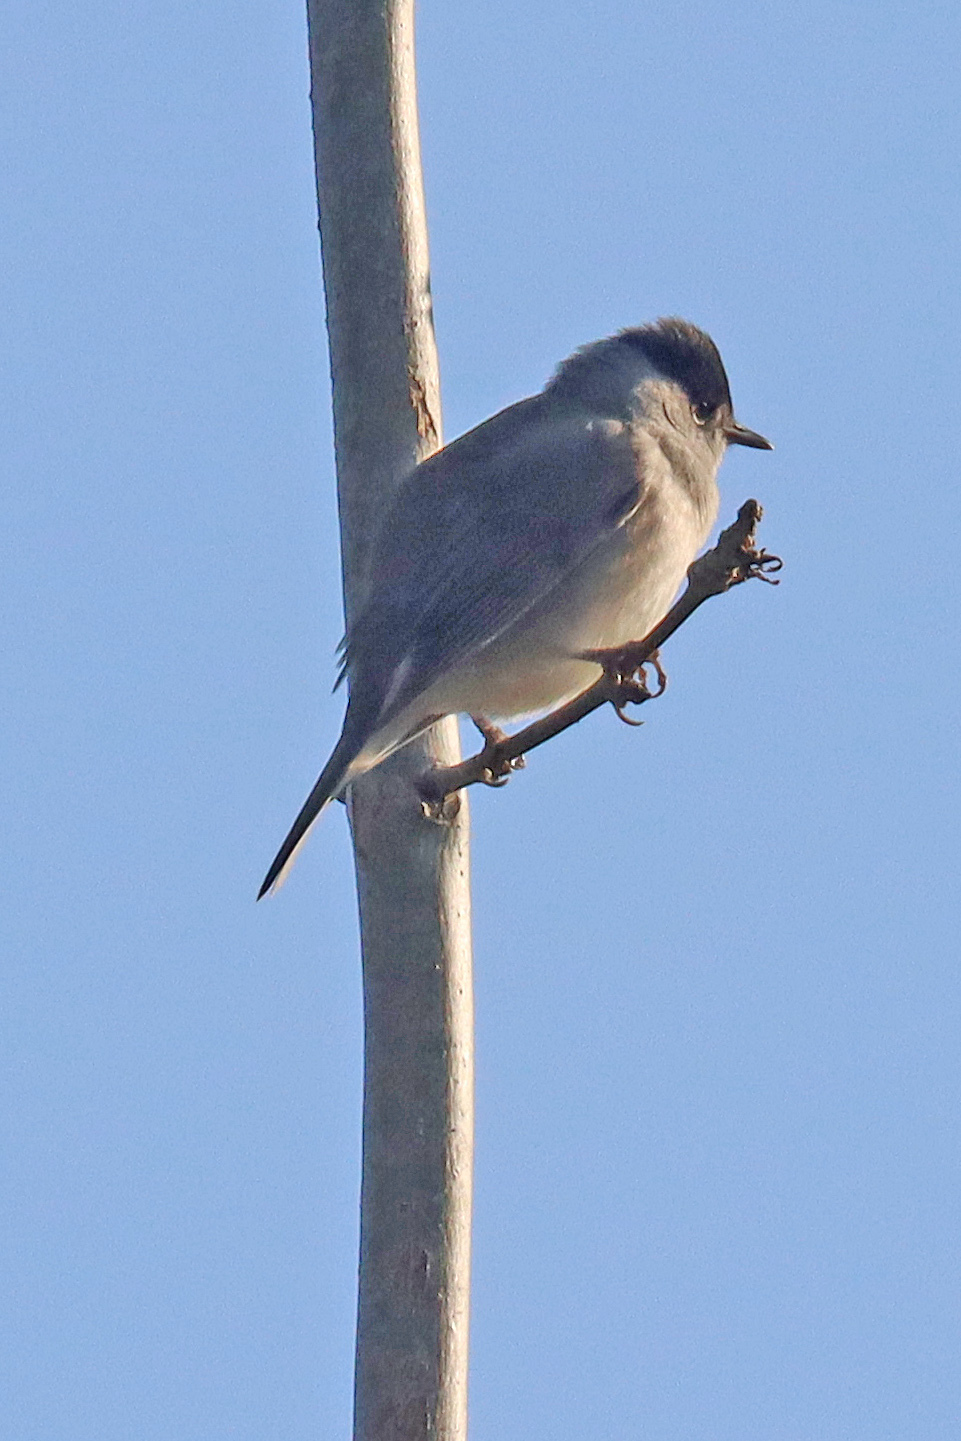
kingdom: Animalia
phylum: Chordata
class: Aves
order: Passeriformes
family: Sylviidae
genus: Sylvia
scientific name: Sylvia atricapilla
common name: Eurasian blackcap
